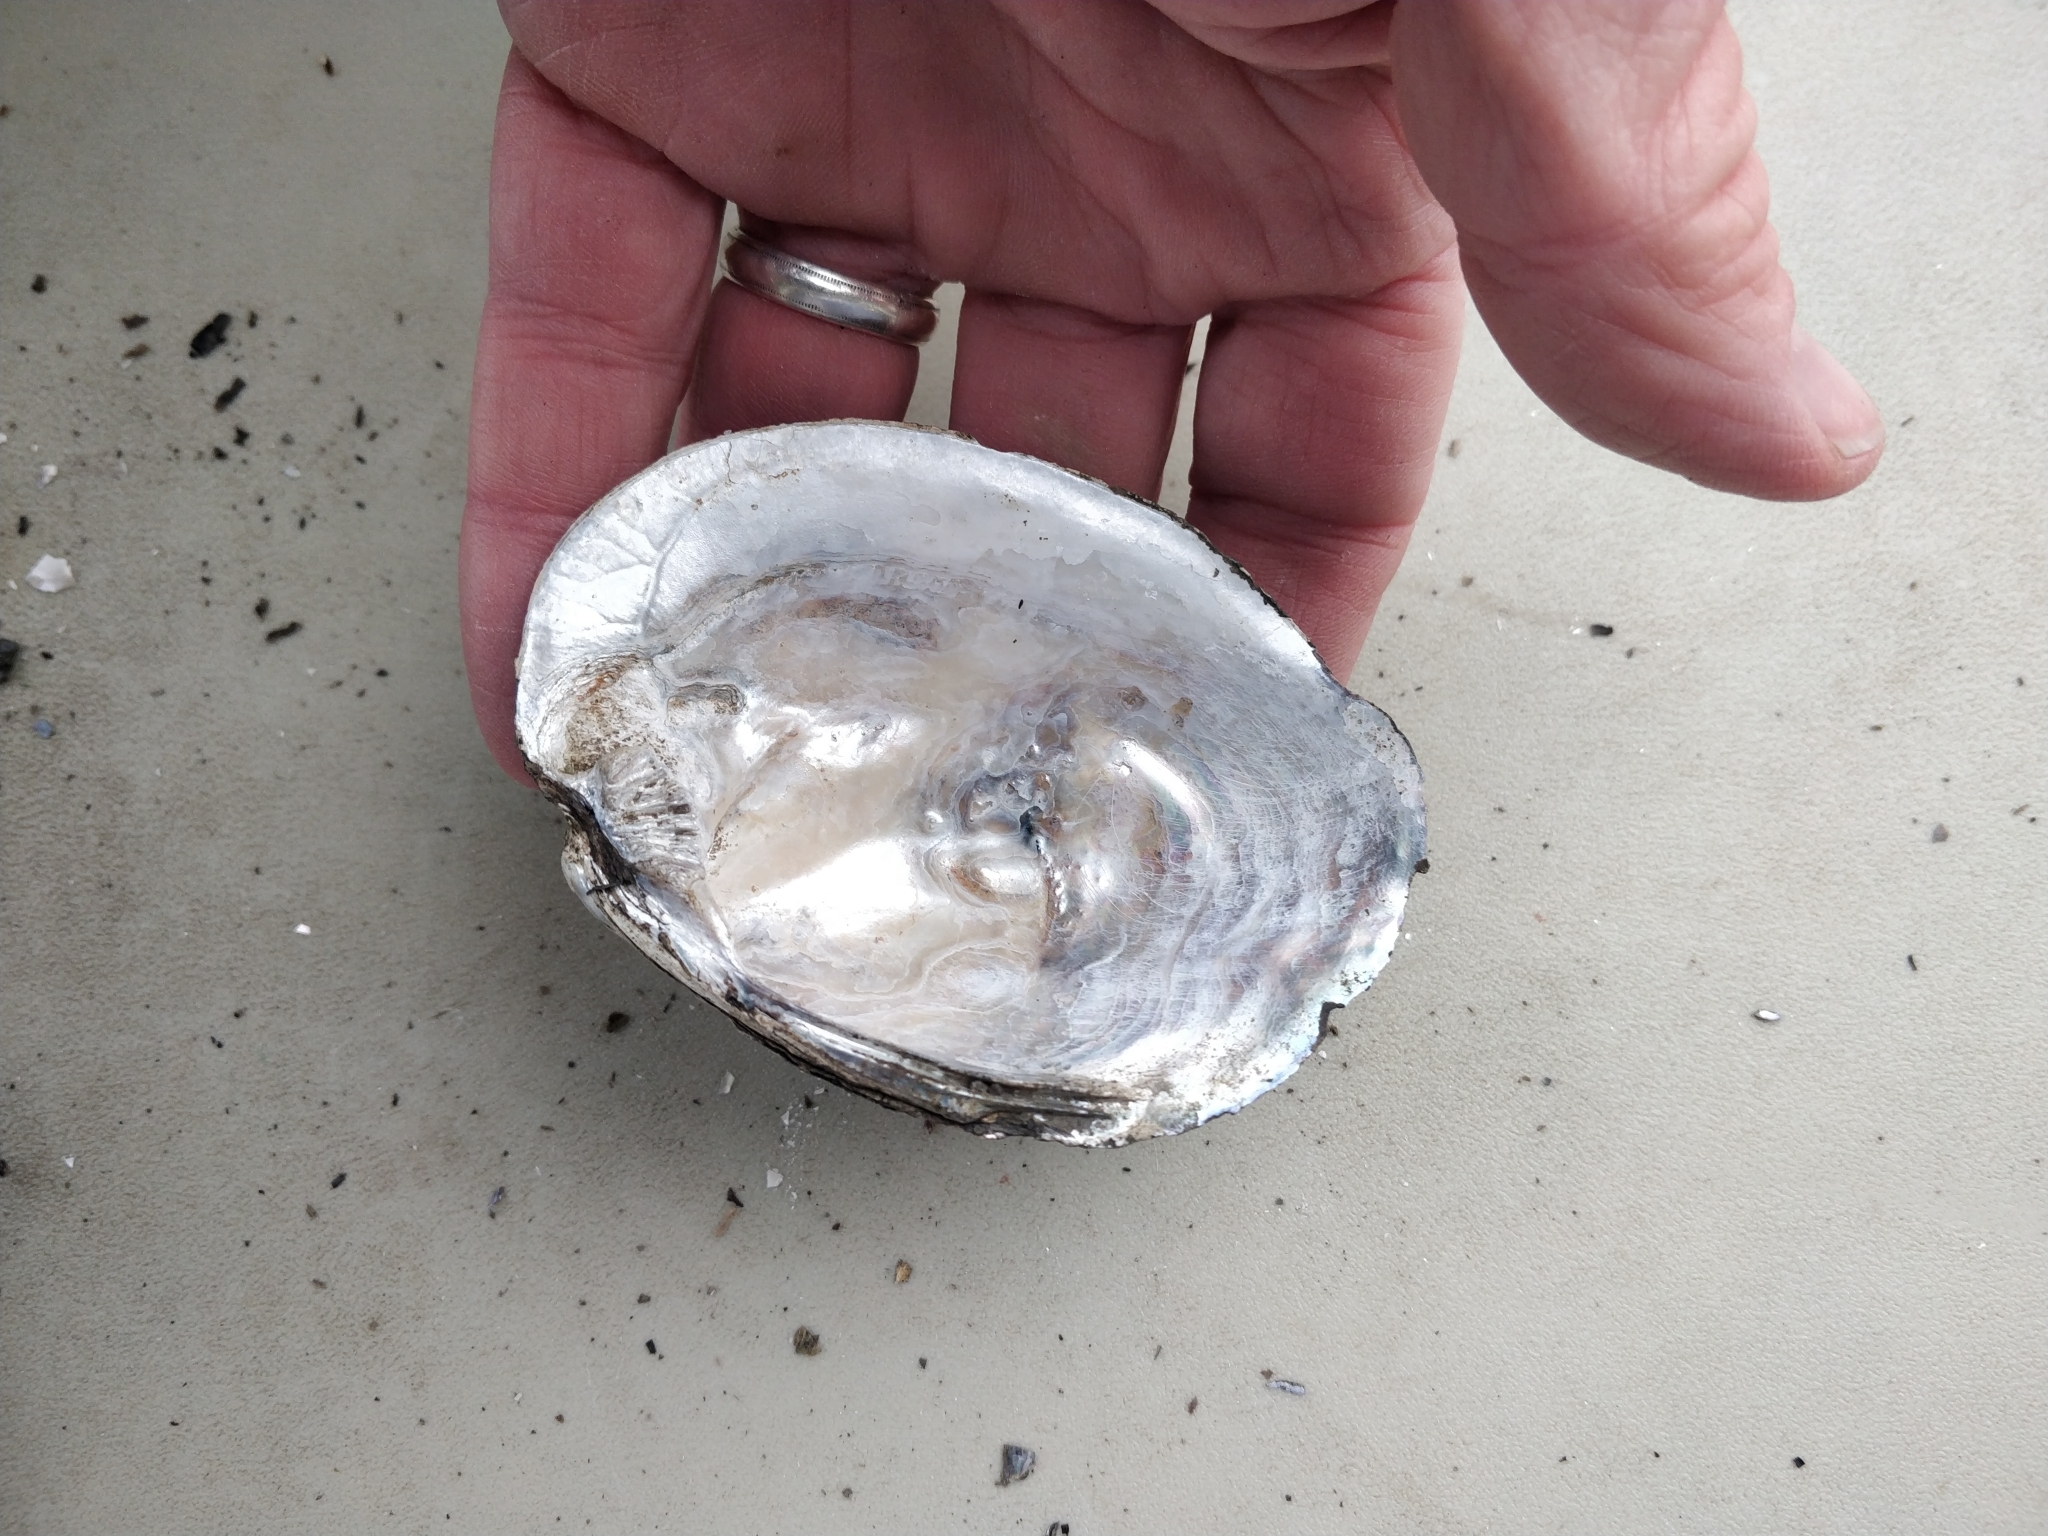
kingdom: Animalia
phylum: Mollusca
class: Bivalvia
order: Unionida
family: Unionidae
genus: Amblema
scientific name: Amblema plicata
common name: Threeridge
